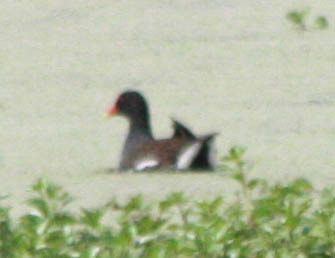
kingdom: Animalia
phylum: Chordata
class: Aves
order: Gruiformes
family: Rallidae
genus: Gallinula
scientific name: Gallinula chloropus
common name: Common moorhen
